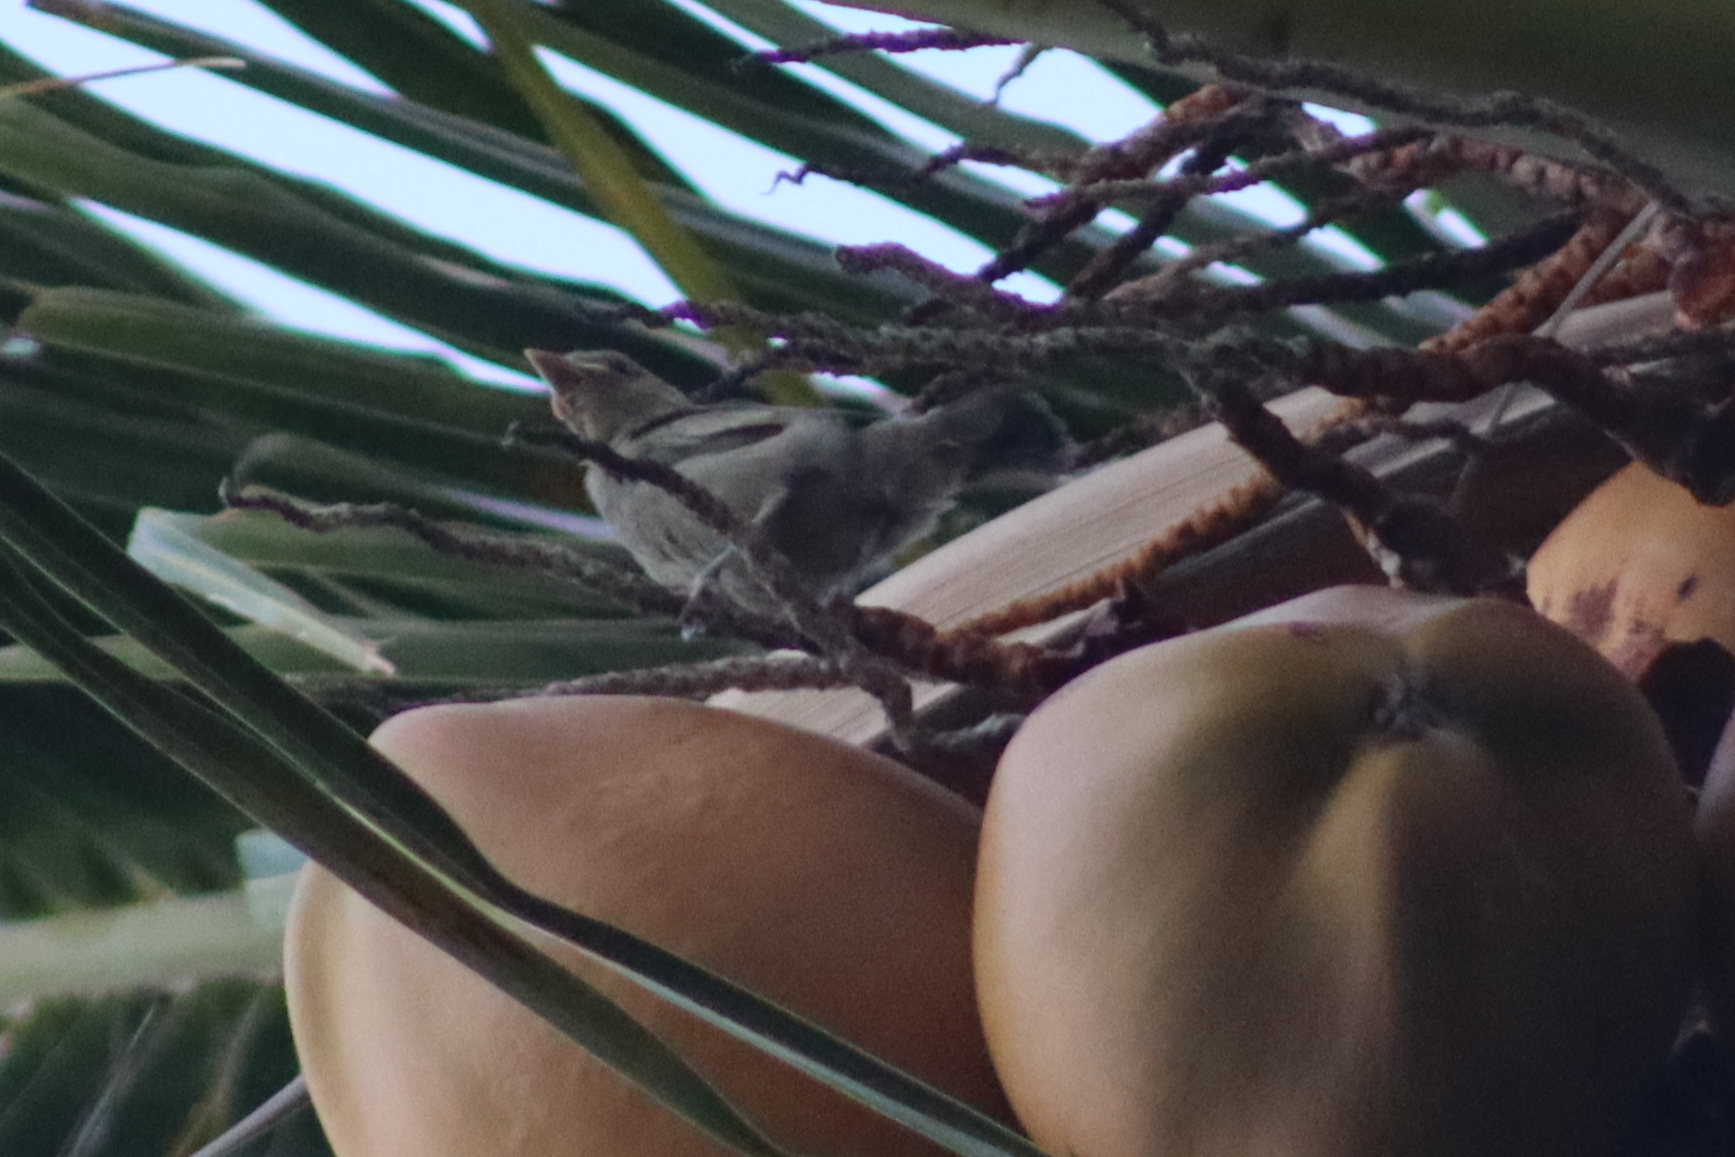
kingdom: Animalia
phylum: Chordata
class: Aves
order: Passeriformes
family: Thraupidae
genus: Thraupis
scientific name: Thraupis palmarum
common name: Palm tanager
